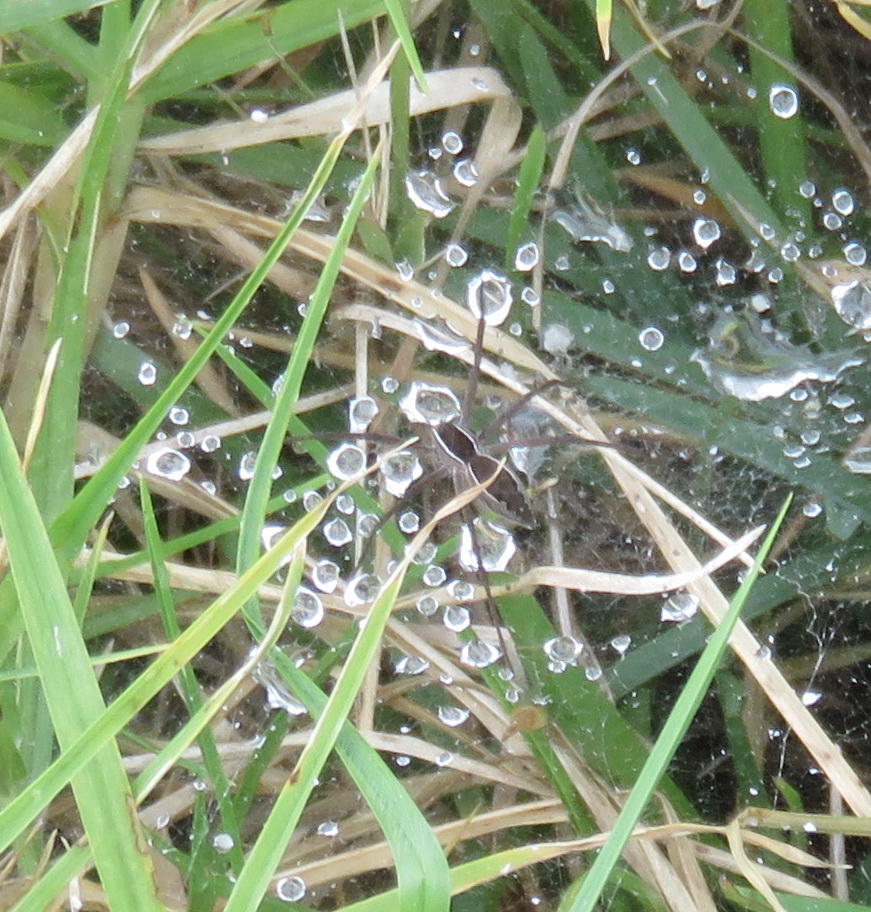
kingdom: Animalia
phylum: Arthropoda
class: Arachnida
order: Araneae
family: Pisauridae
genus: Euprosthenopsis
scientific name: Euprosthenopsis pulchella
